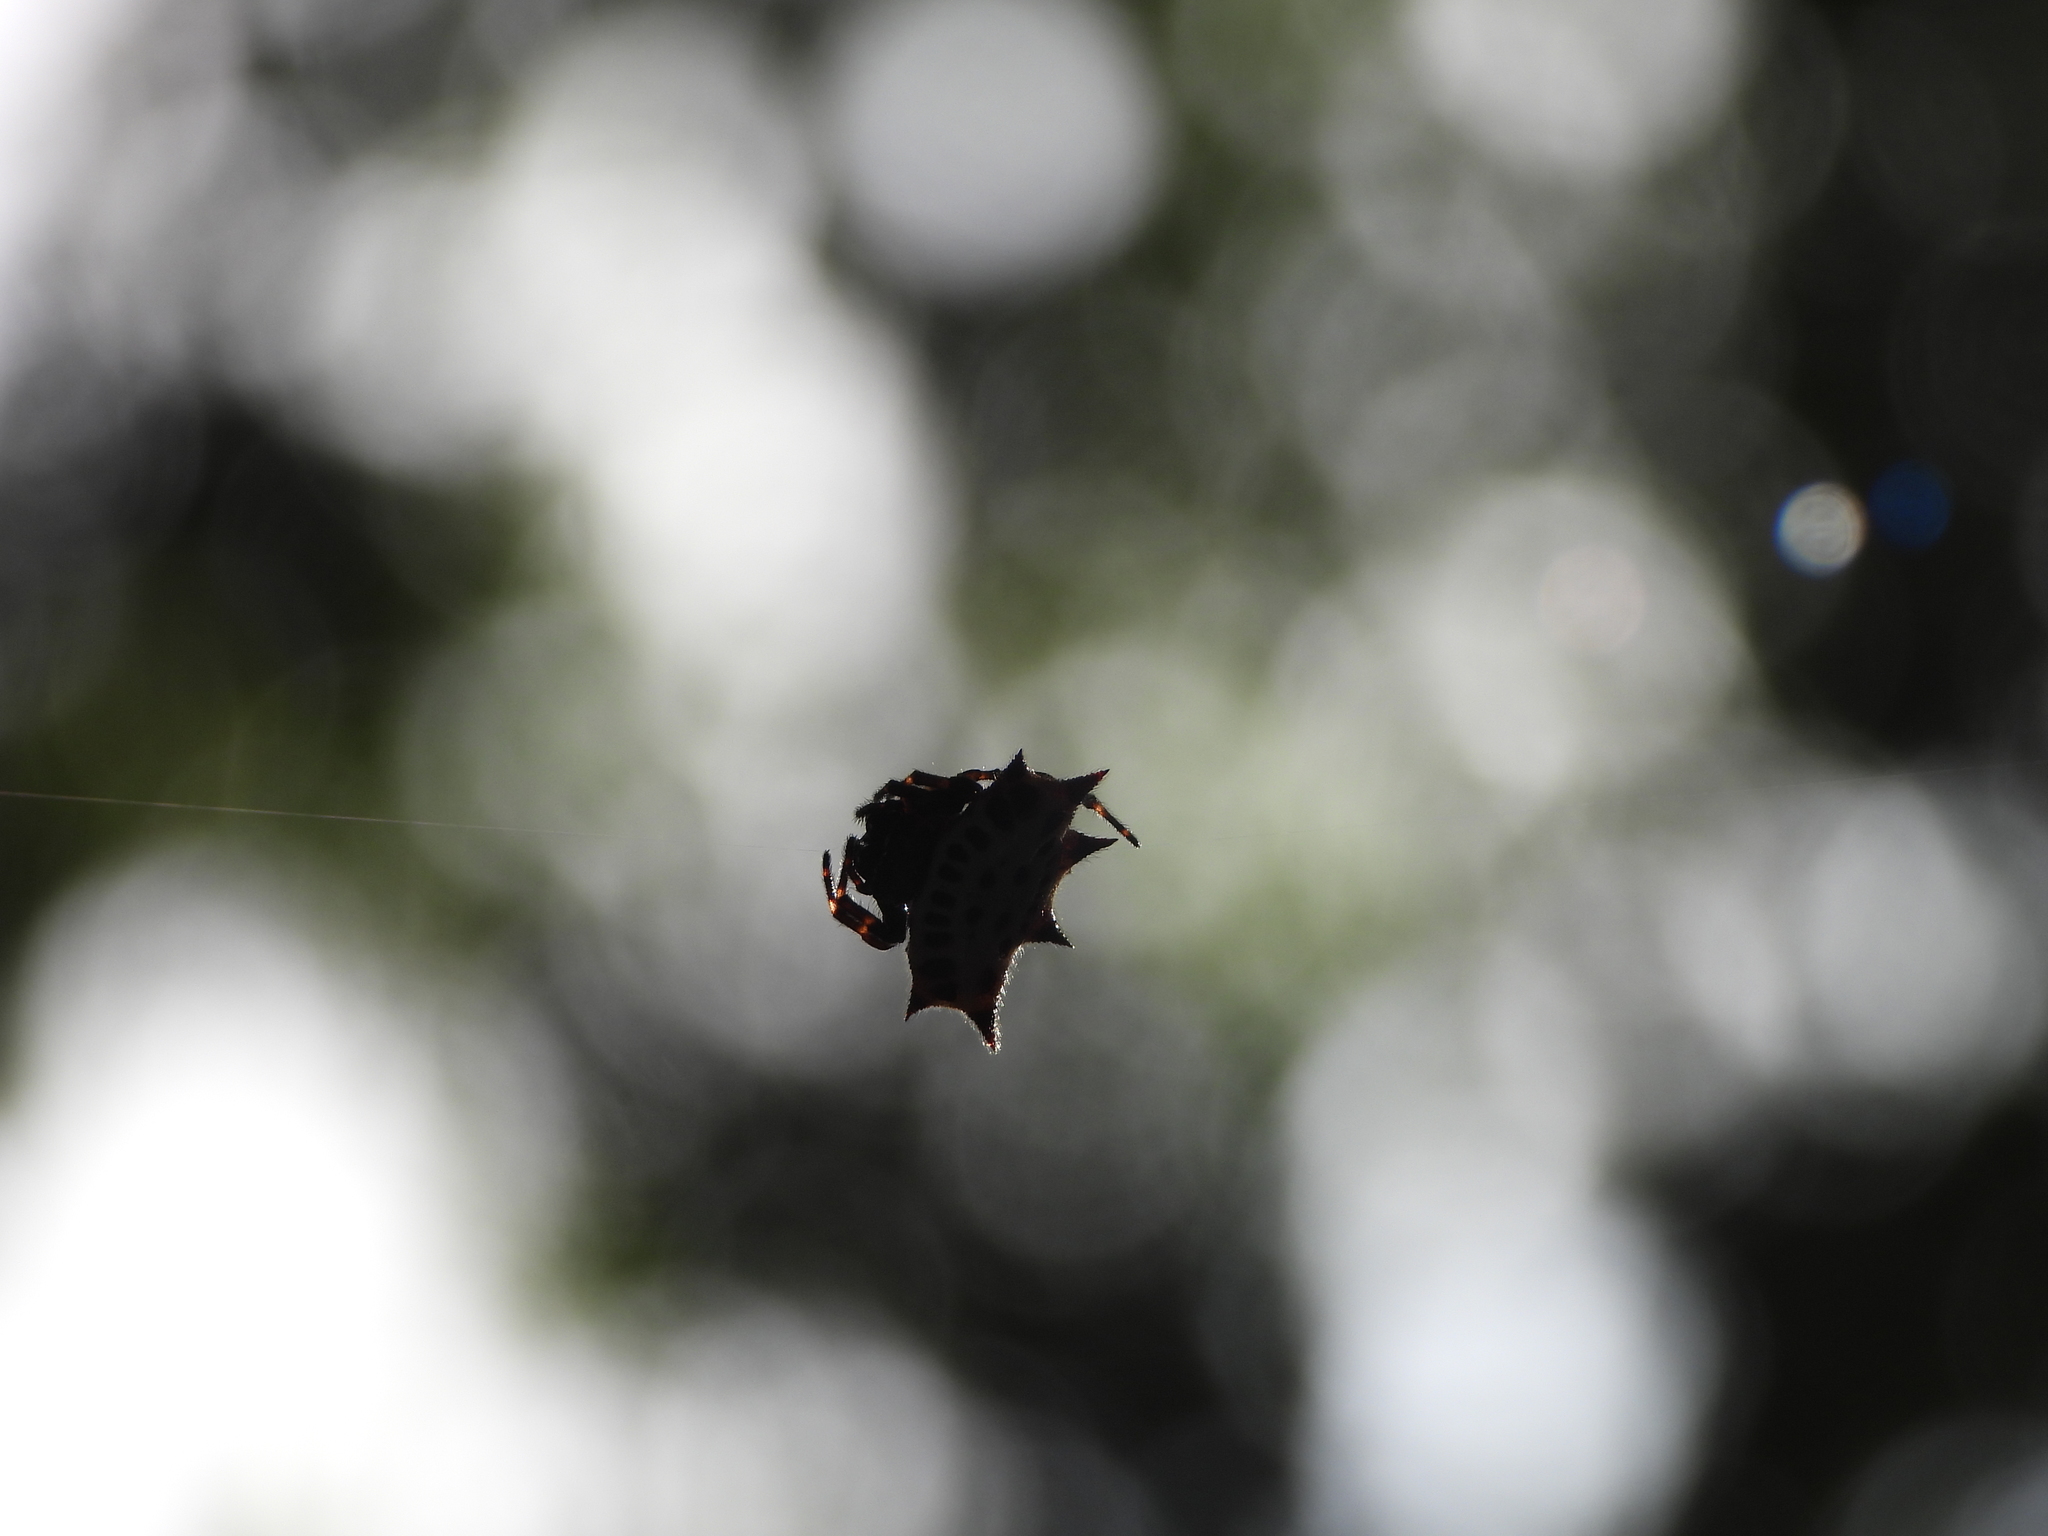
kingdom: Animalia
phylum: Arthropoda
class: Arachnida
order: Araneae
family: Araneidae
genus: Gasteracantha
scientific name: Gasteracantha cancriformis
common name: Orb weavers
